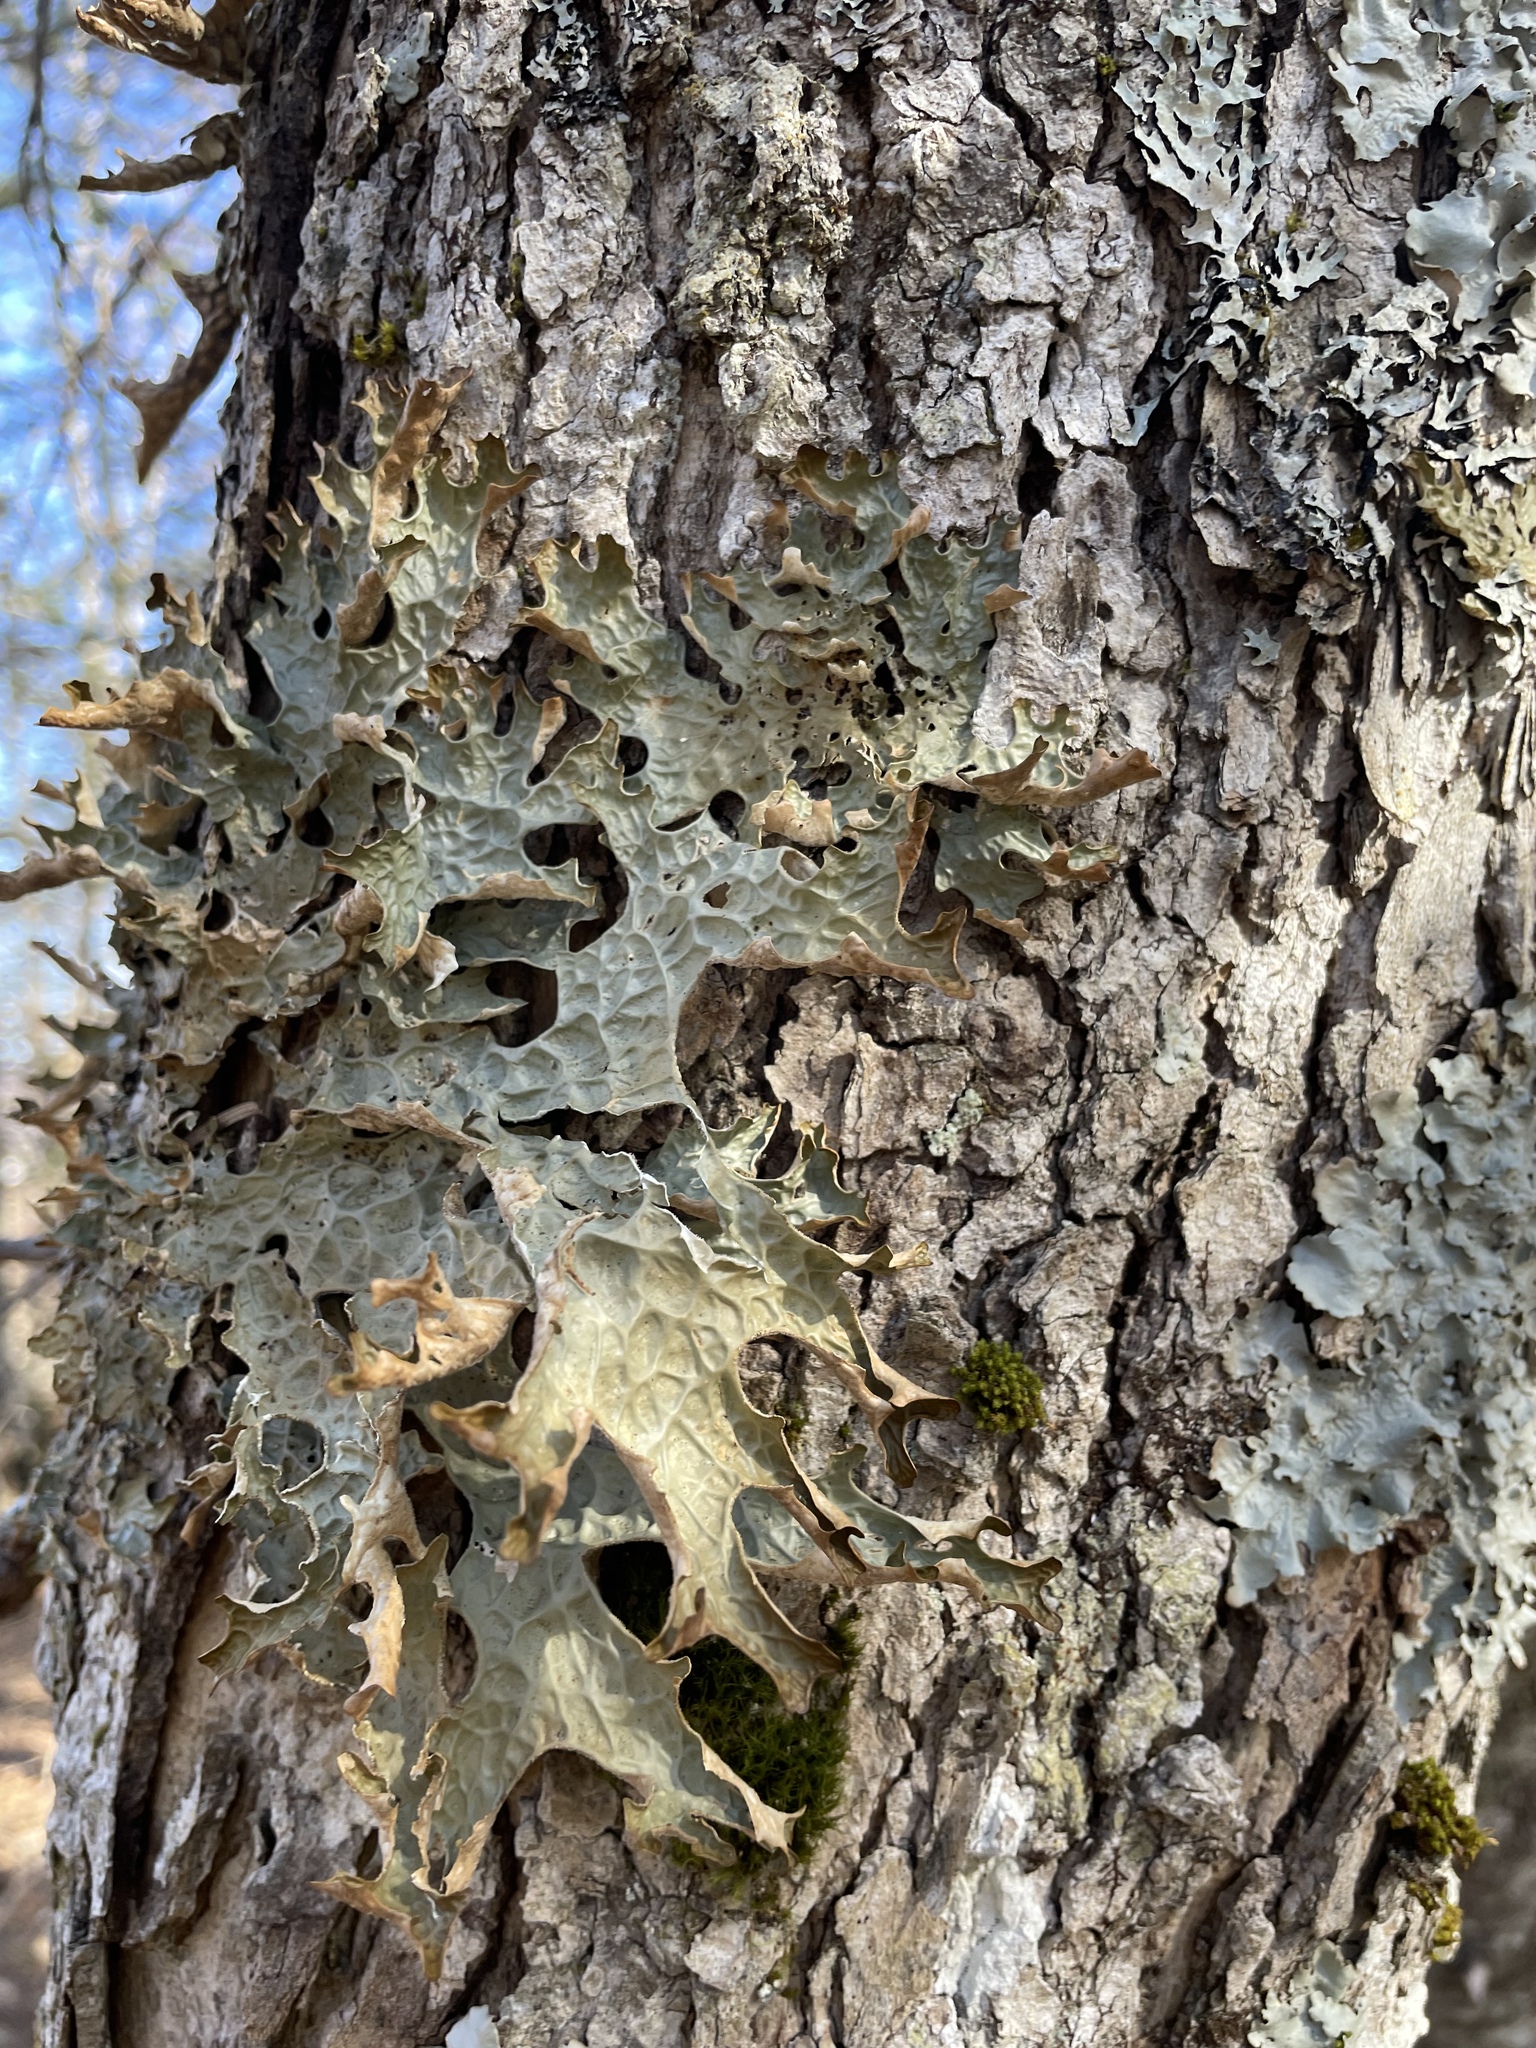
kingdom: Fungi
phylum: Ascomycota
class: Lecanoromycetes
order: Peltigerales
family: Lobariaceae
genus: Lobaria
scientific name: Lobaria pulmonaria
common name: Lungwort
